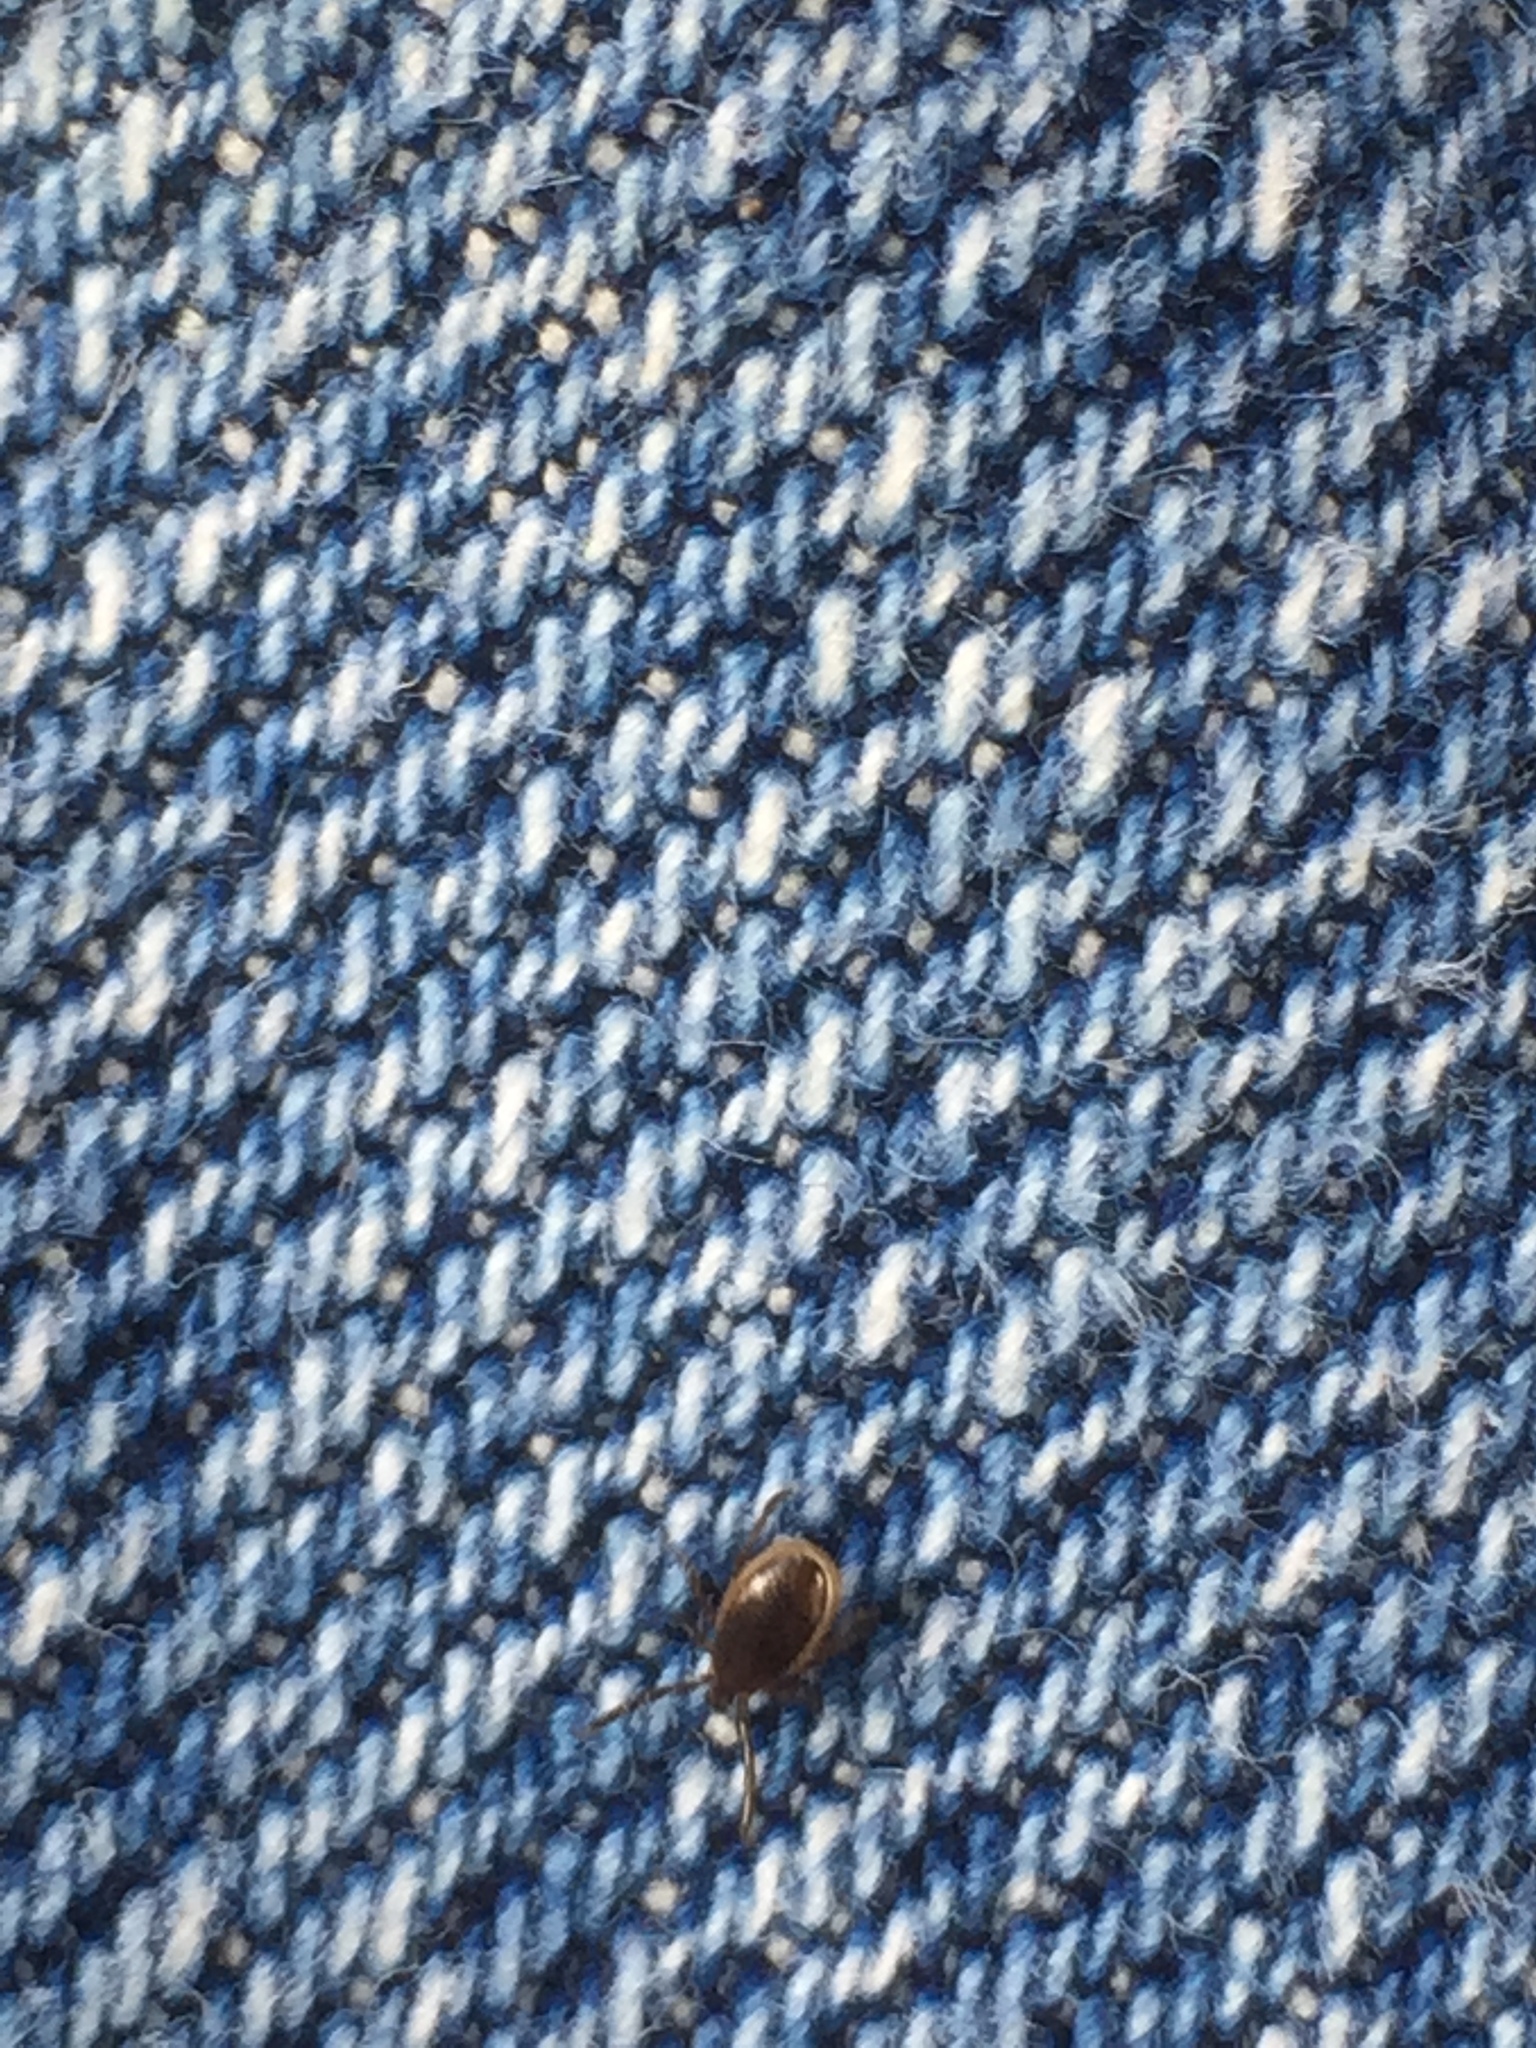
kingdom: Animalia
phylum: Arthropoda
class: Arachnida
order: Ixodida
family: Ixodidae
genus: Ixodes
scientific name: Ixodes scapularis
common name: Black legged tick
